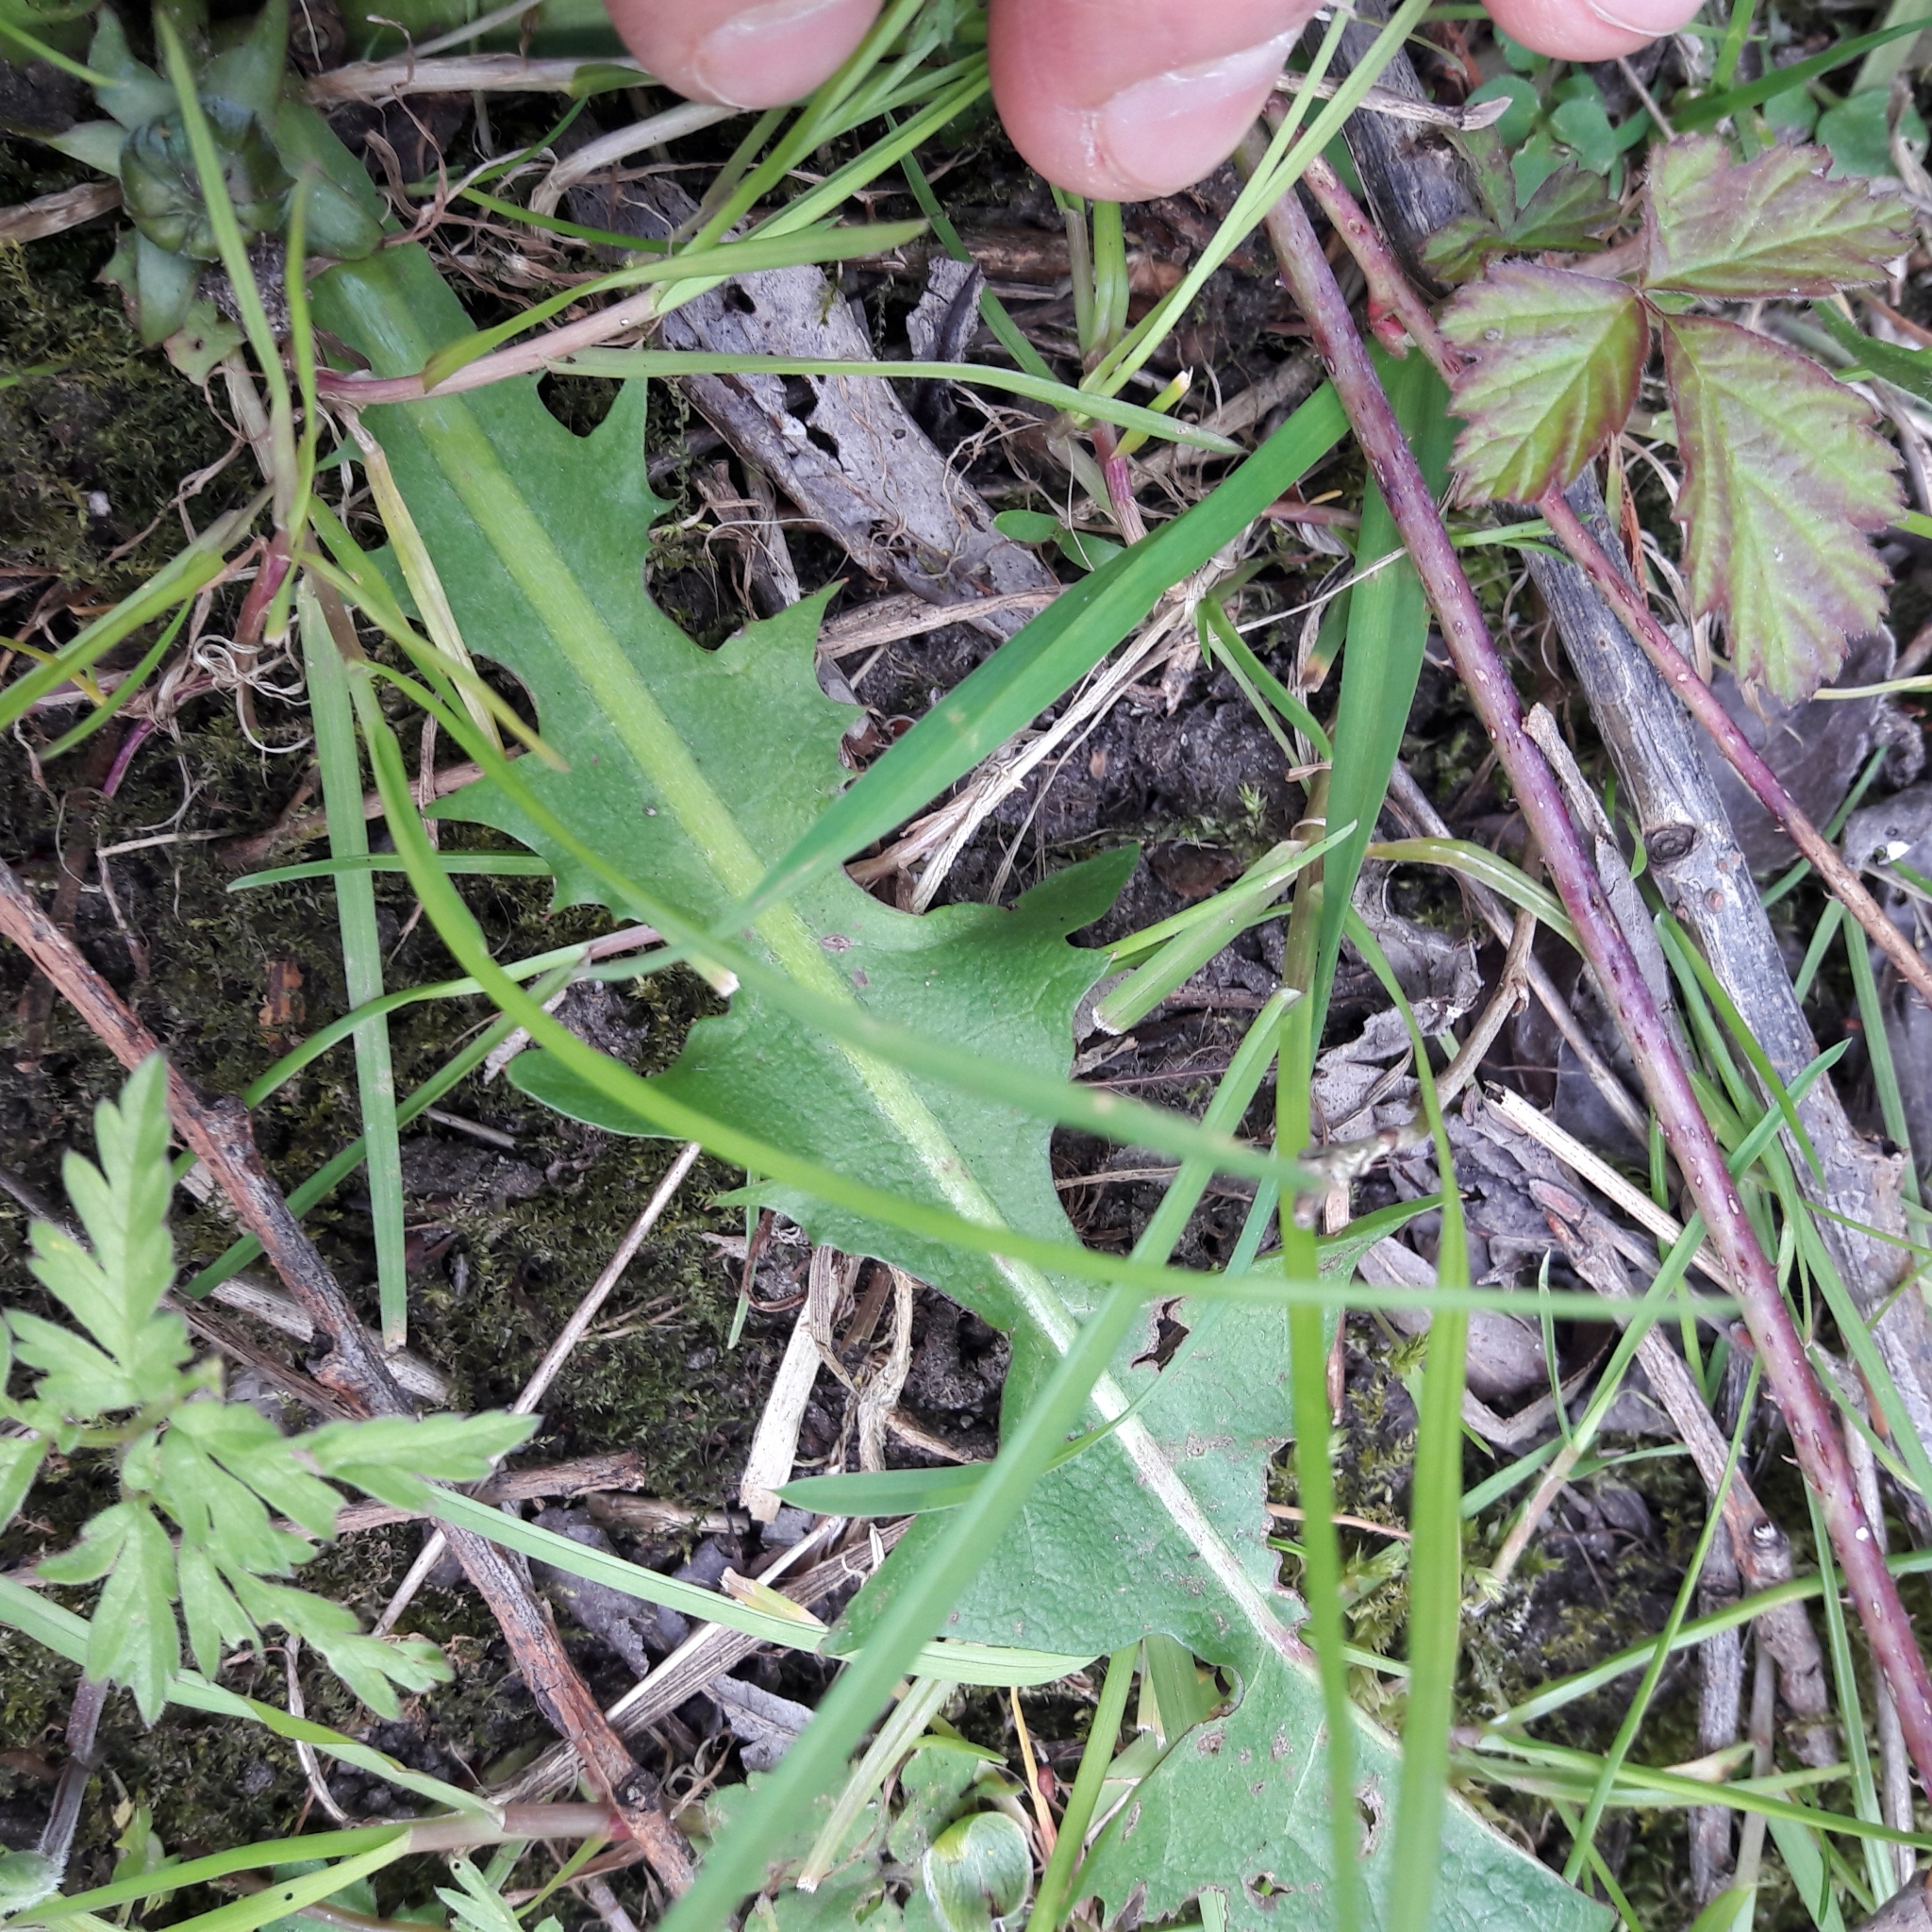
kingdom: Plantae
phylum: Tracheophyta
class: Magnoliopsida
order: Asterales
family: Asteraceae
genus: Taraxacum
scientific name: Taraxacum officinale
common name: Common dandelion
